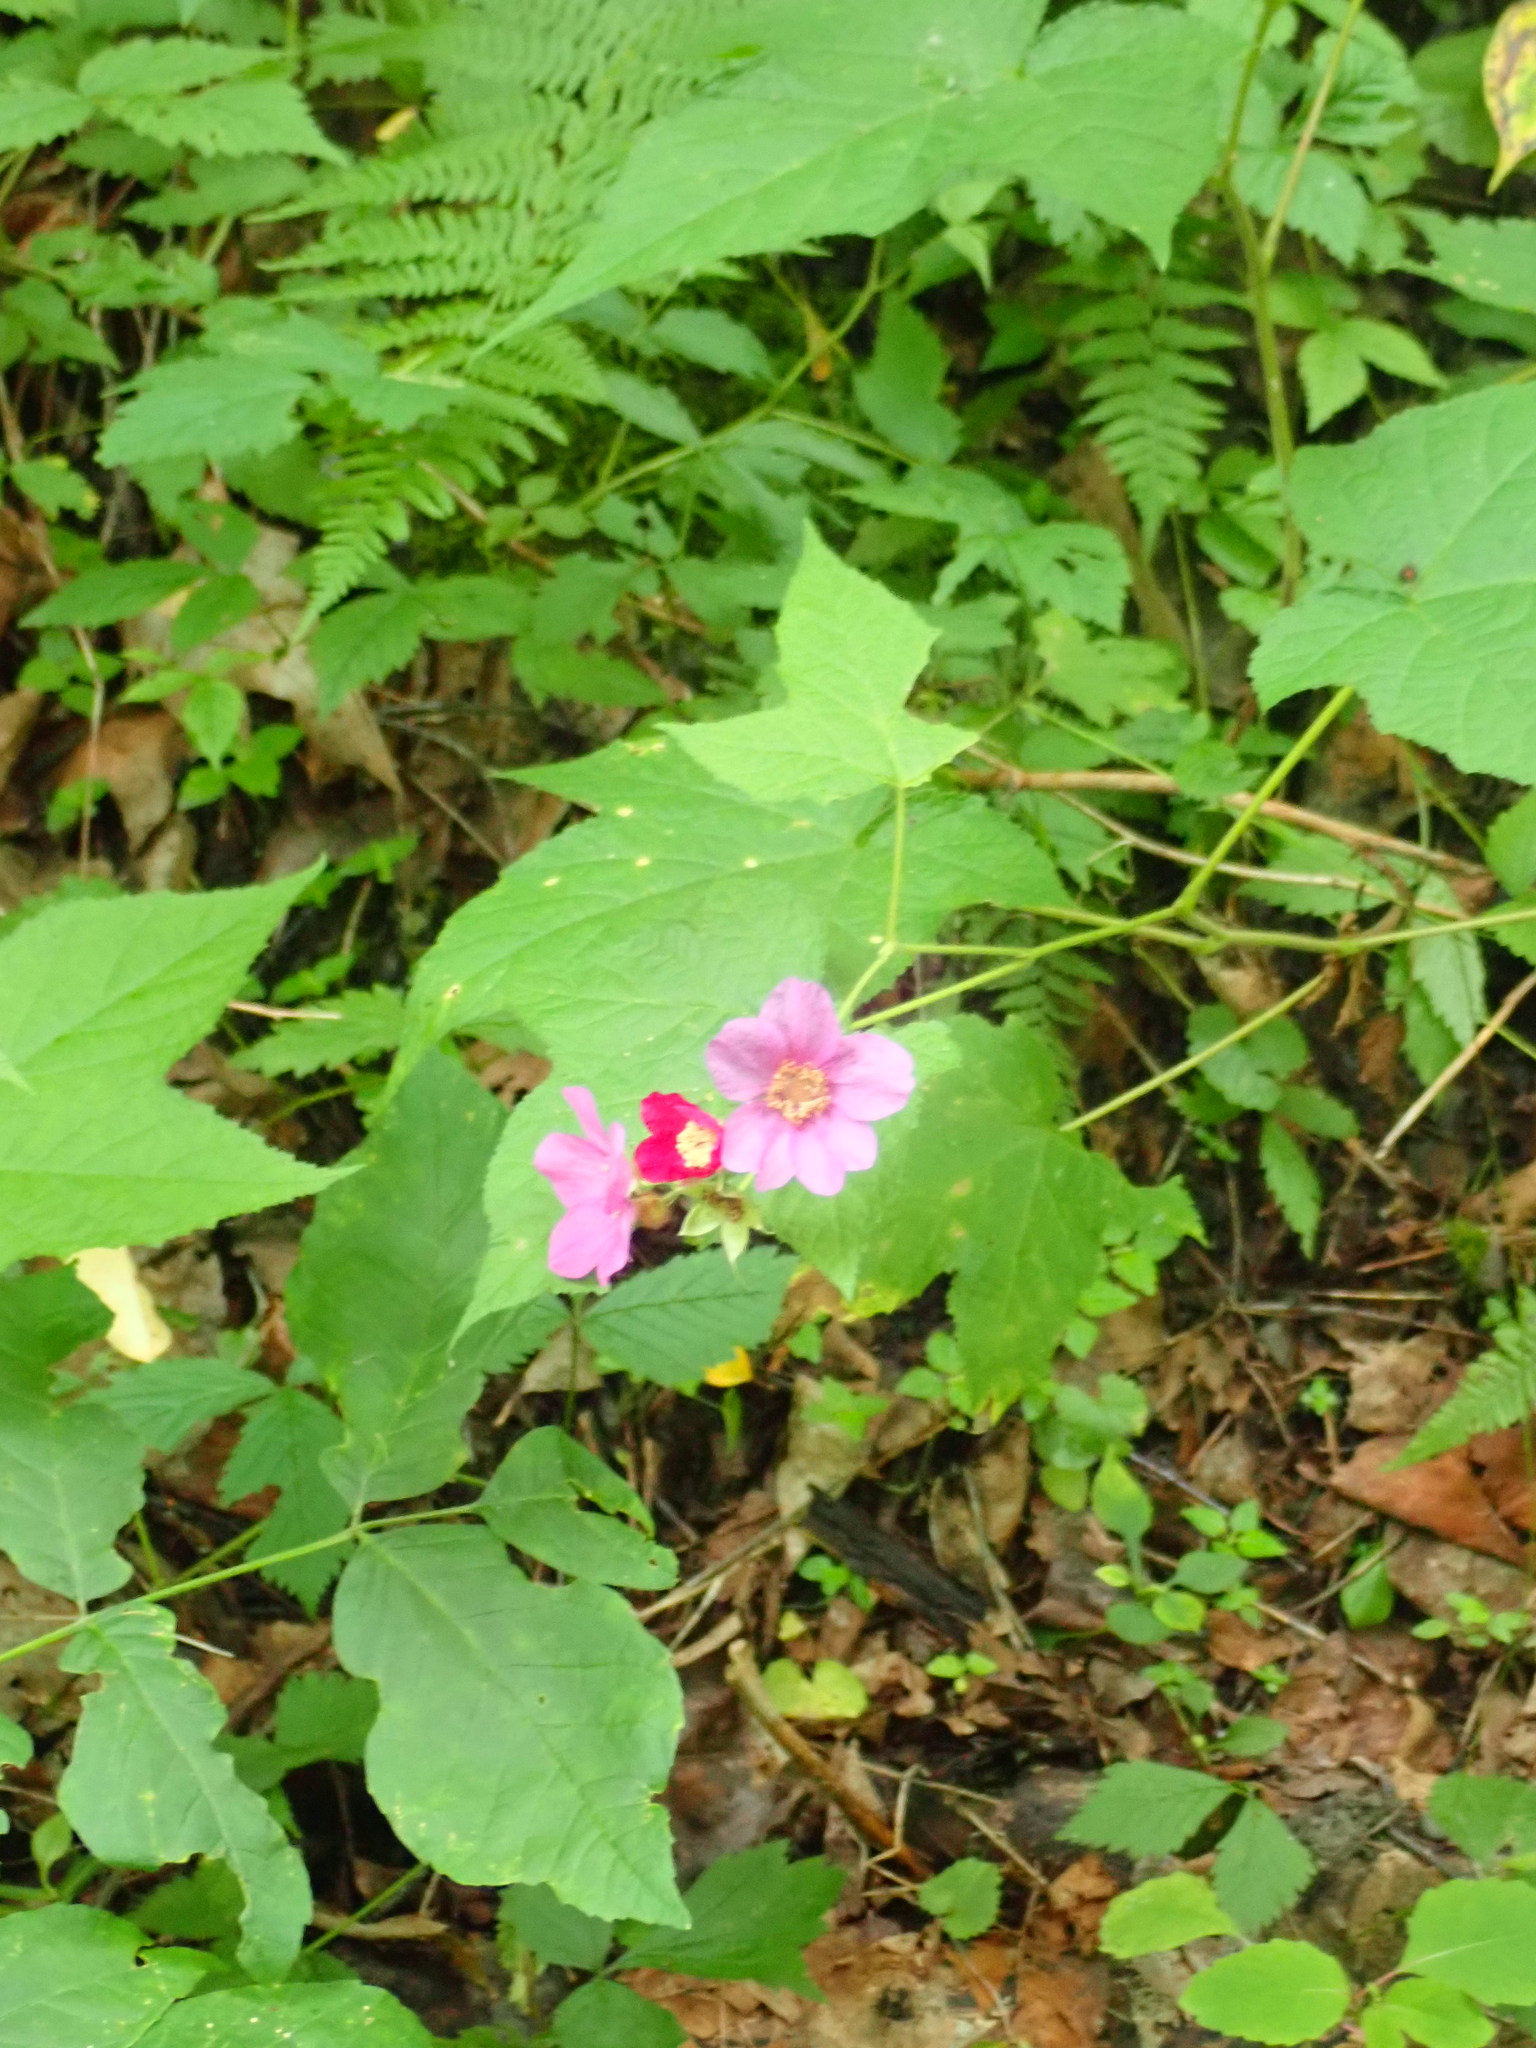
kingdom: Plantae
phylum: Tracheophyta
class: Magnoliopsida
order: Rosales
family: Rosaceae
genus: Rubus
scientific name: Rubus odoratus
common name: Purple-flowered raspberry
